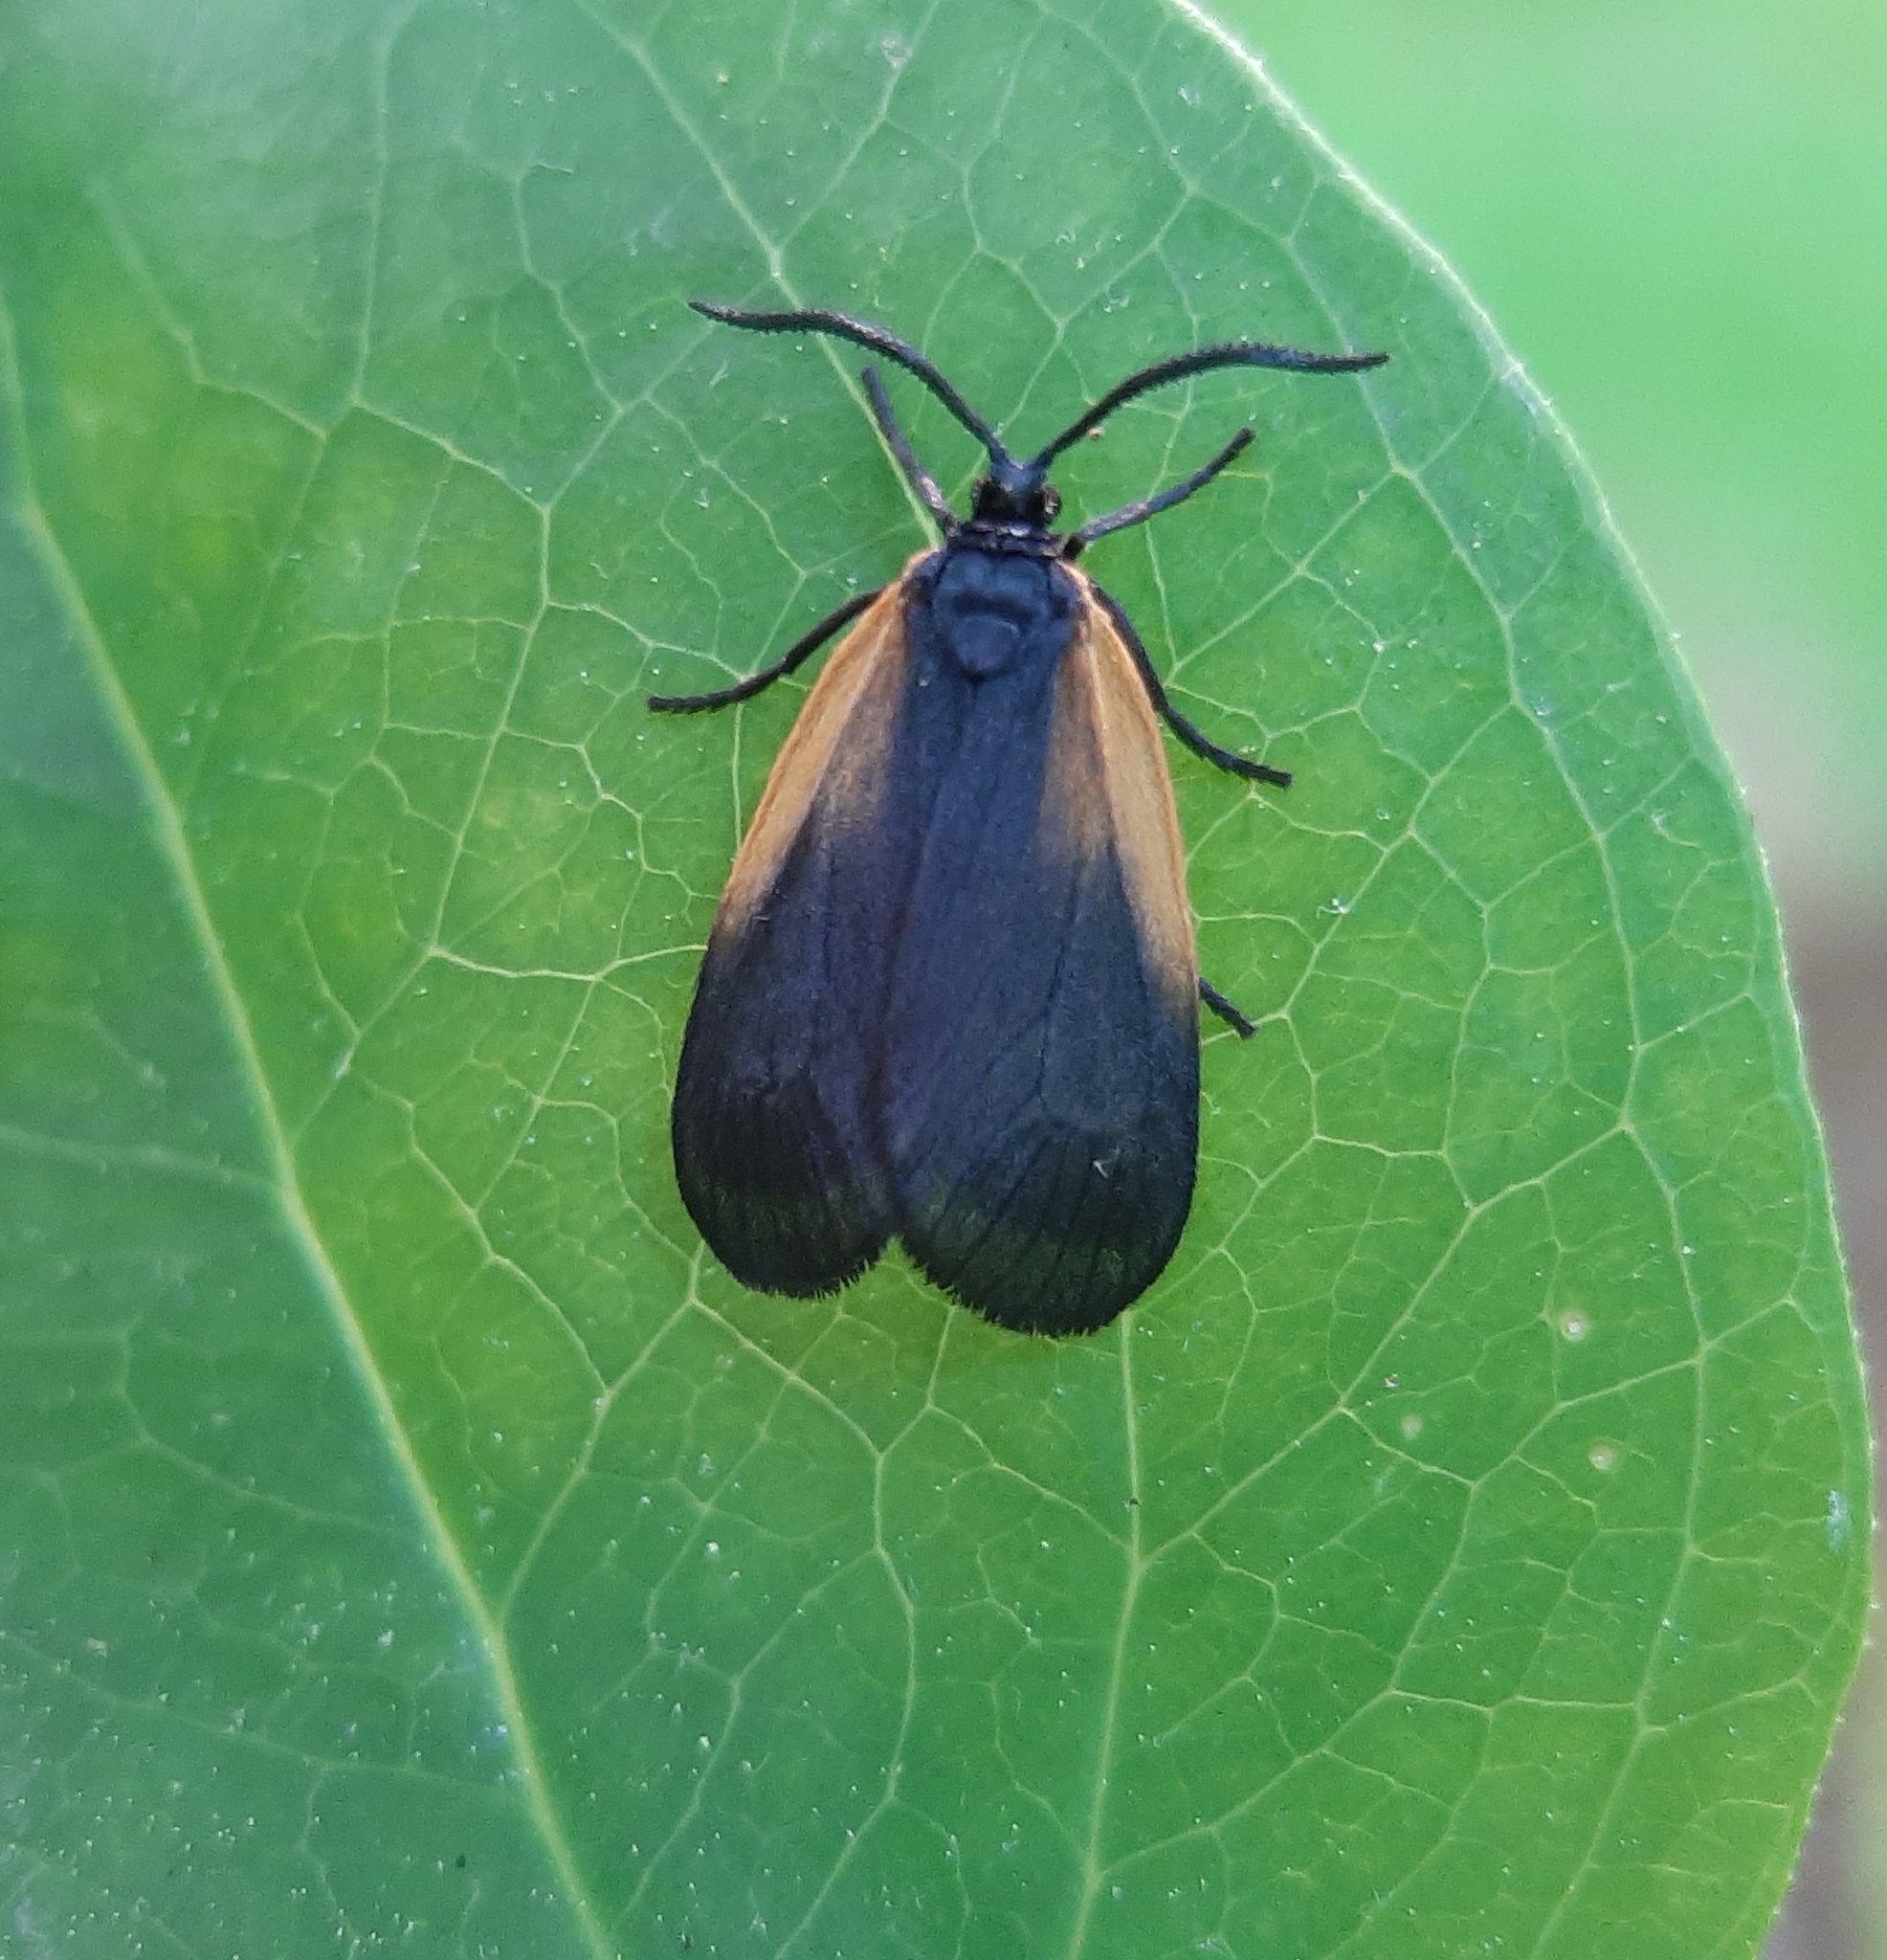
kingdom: Animalia
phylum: Arthropoda
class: Insecta
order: Lepidoptera
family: Zygaenidae
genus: Malthaca
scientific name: Malthaca dimidiata
